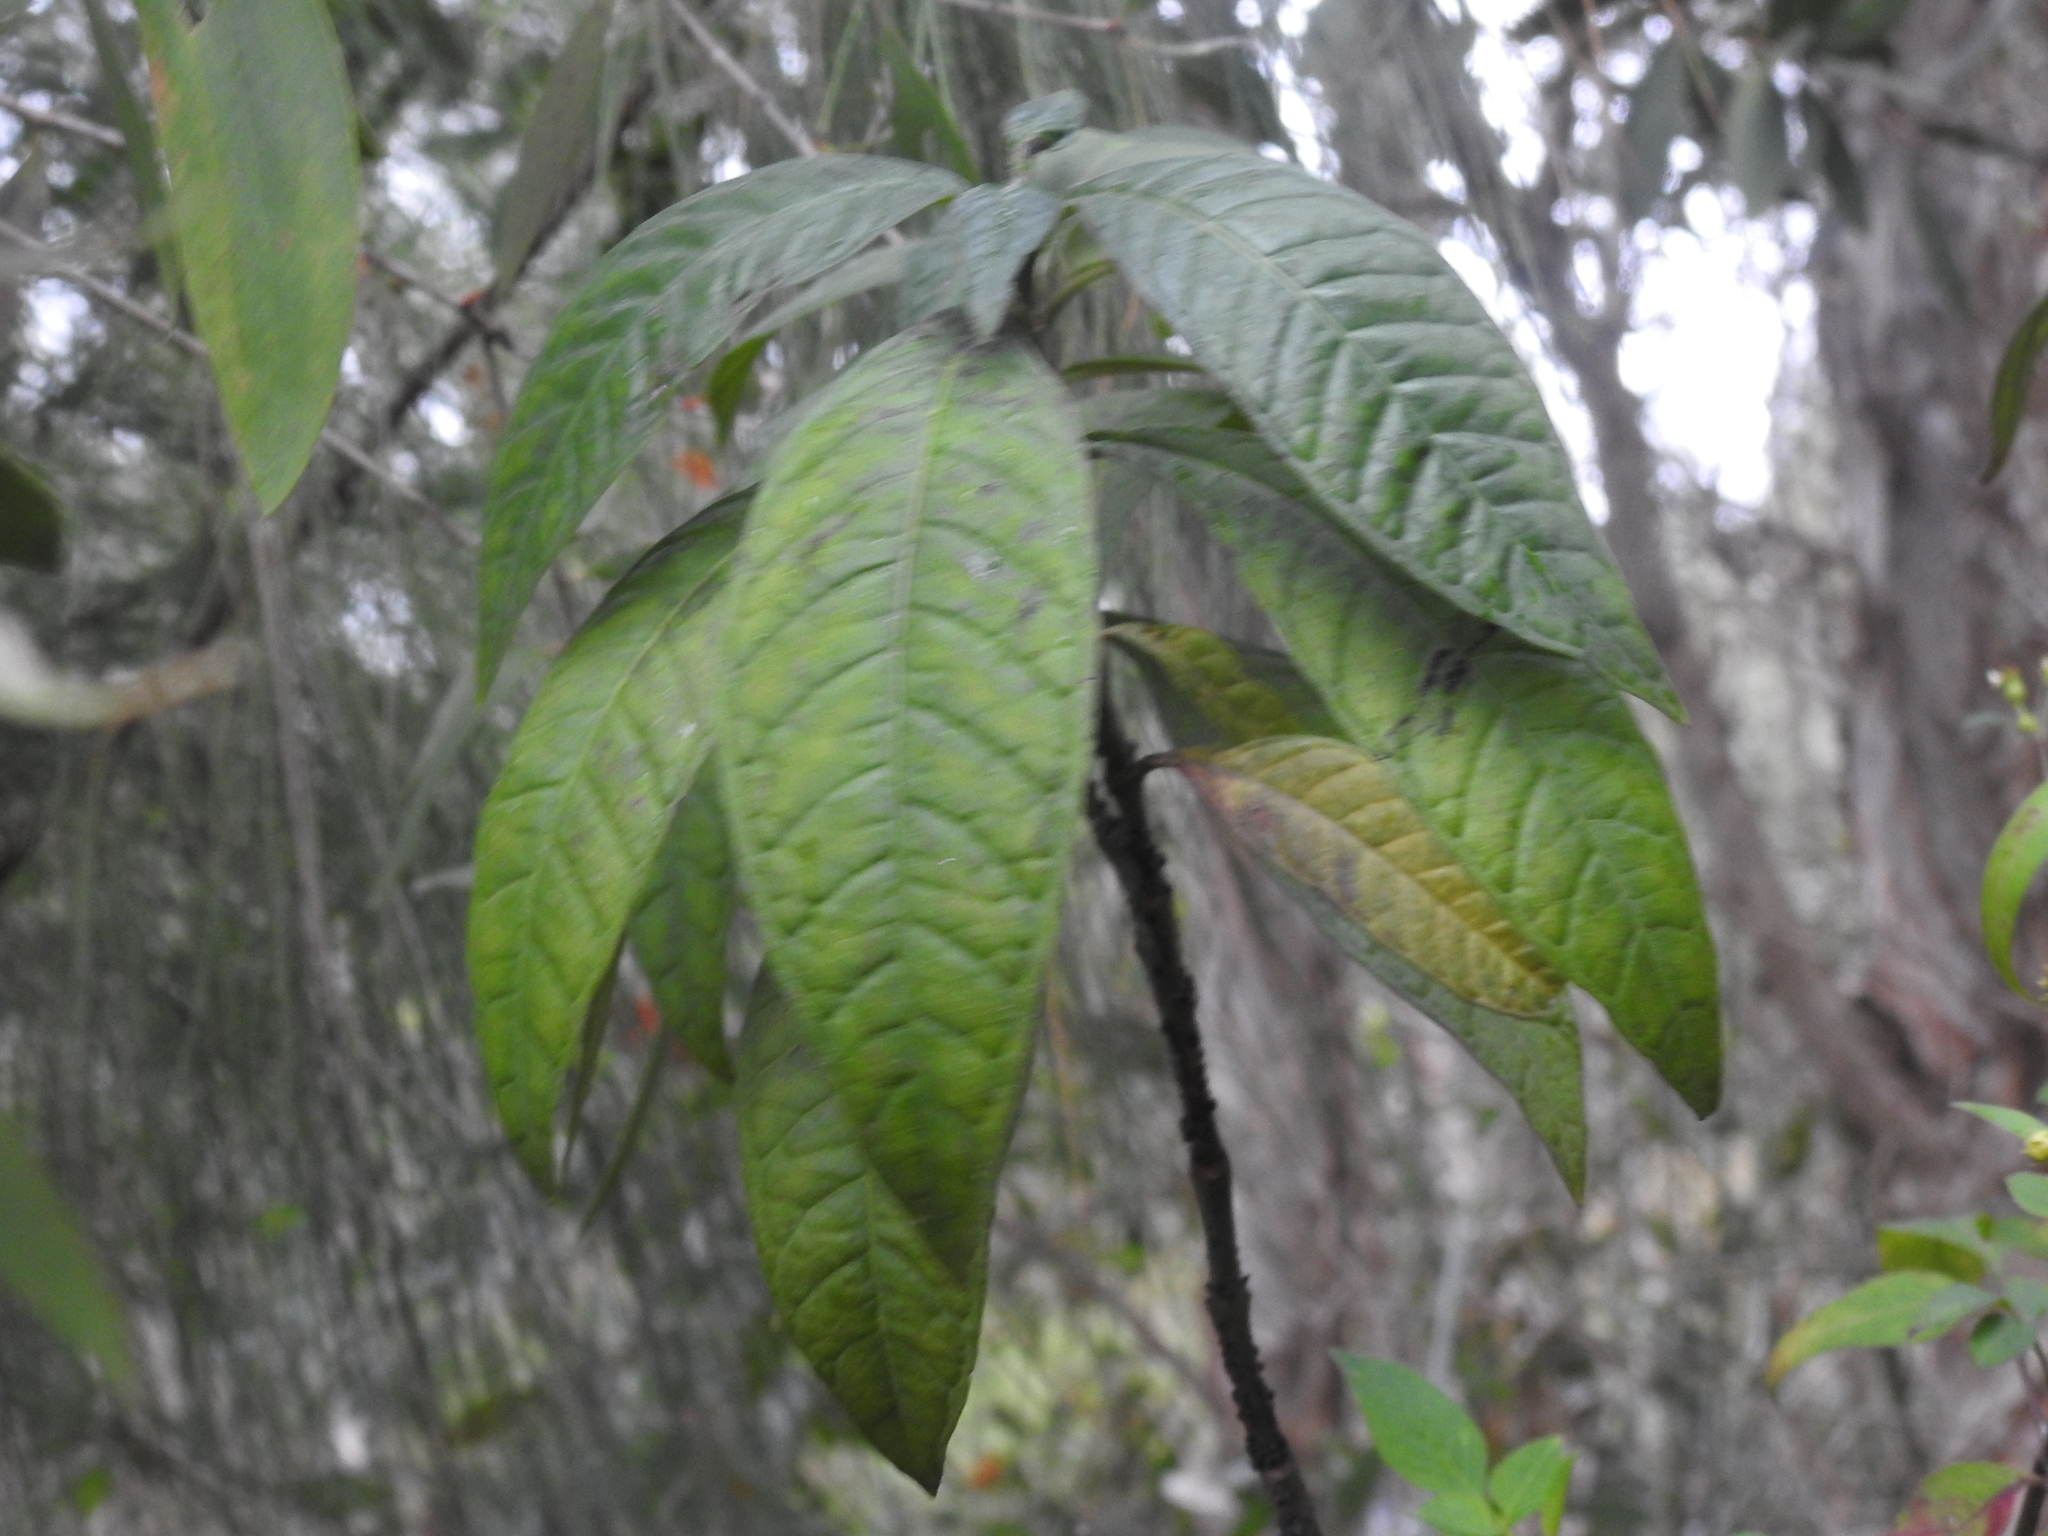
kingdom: Plantae
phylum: Tracheophyta
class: Magnoliopsida
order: Gentianales
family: Rubiaceae
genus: Psychotria
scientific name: Psychotria tenuifolia
